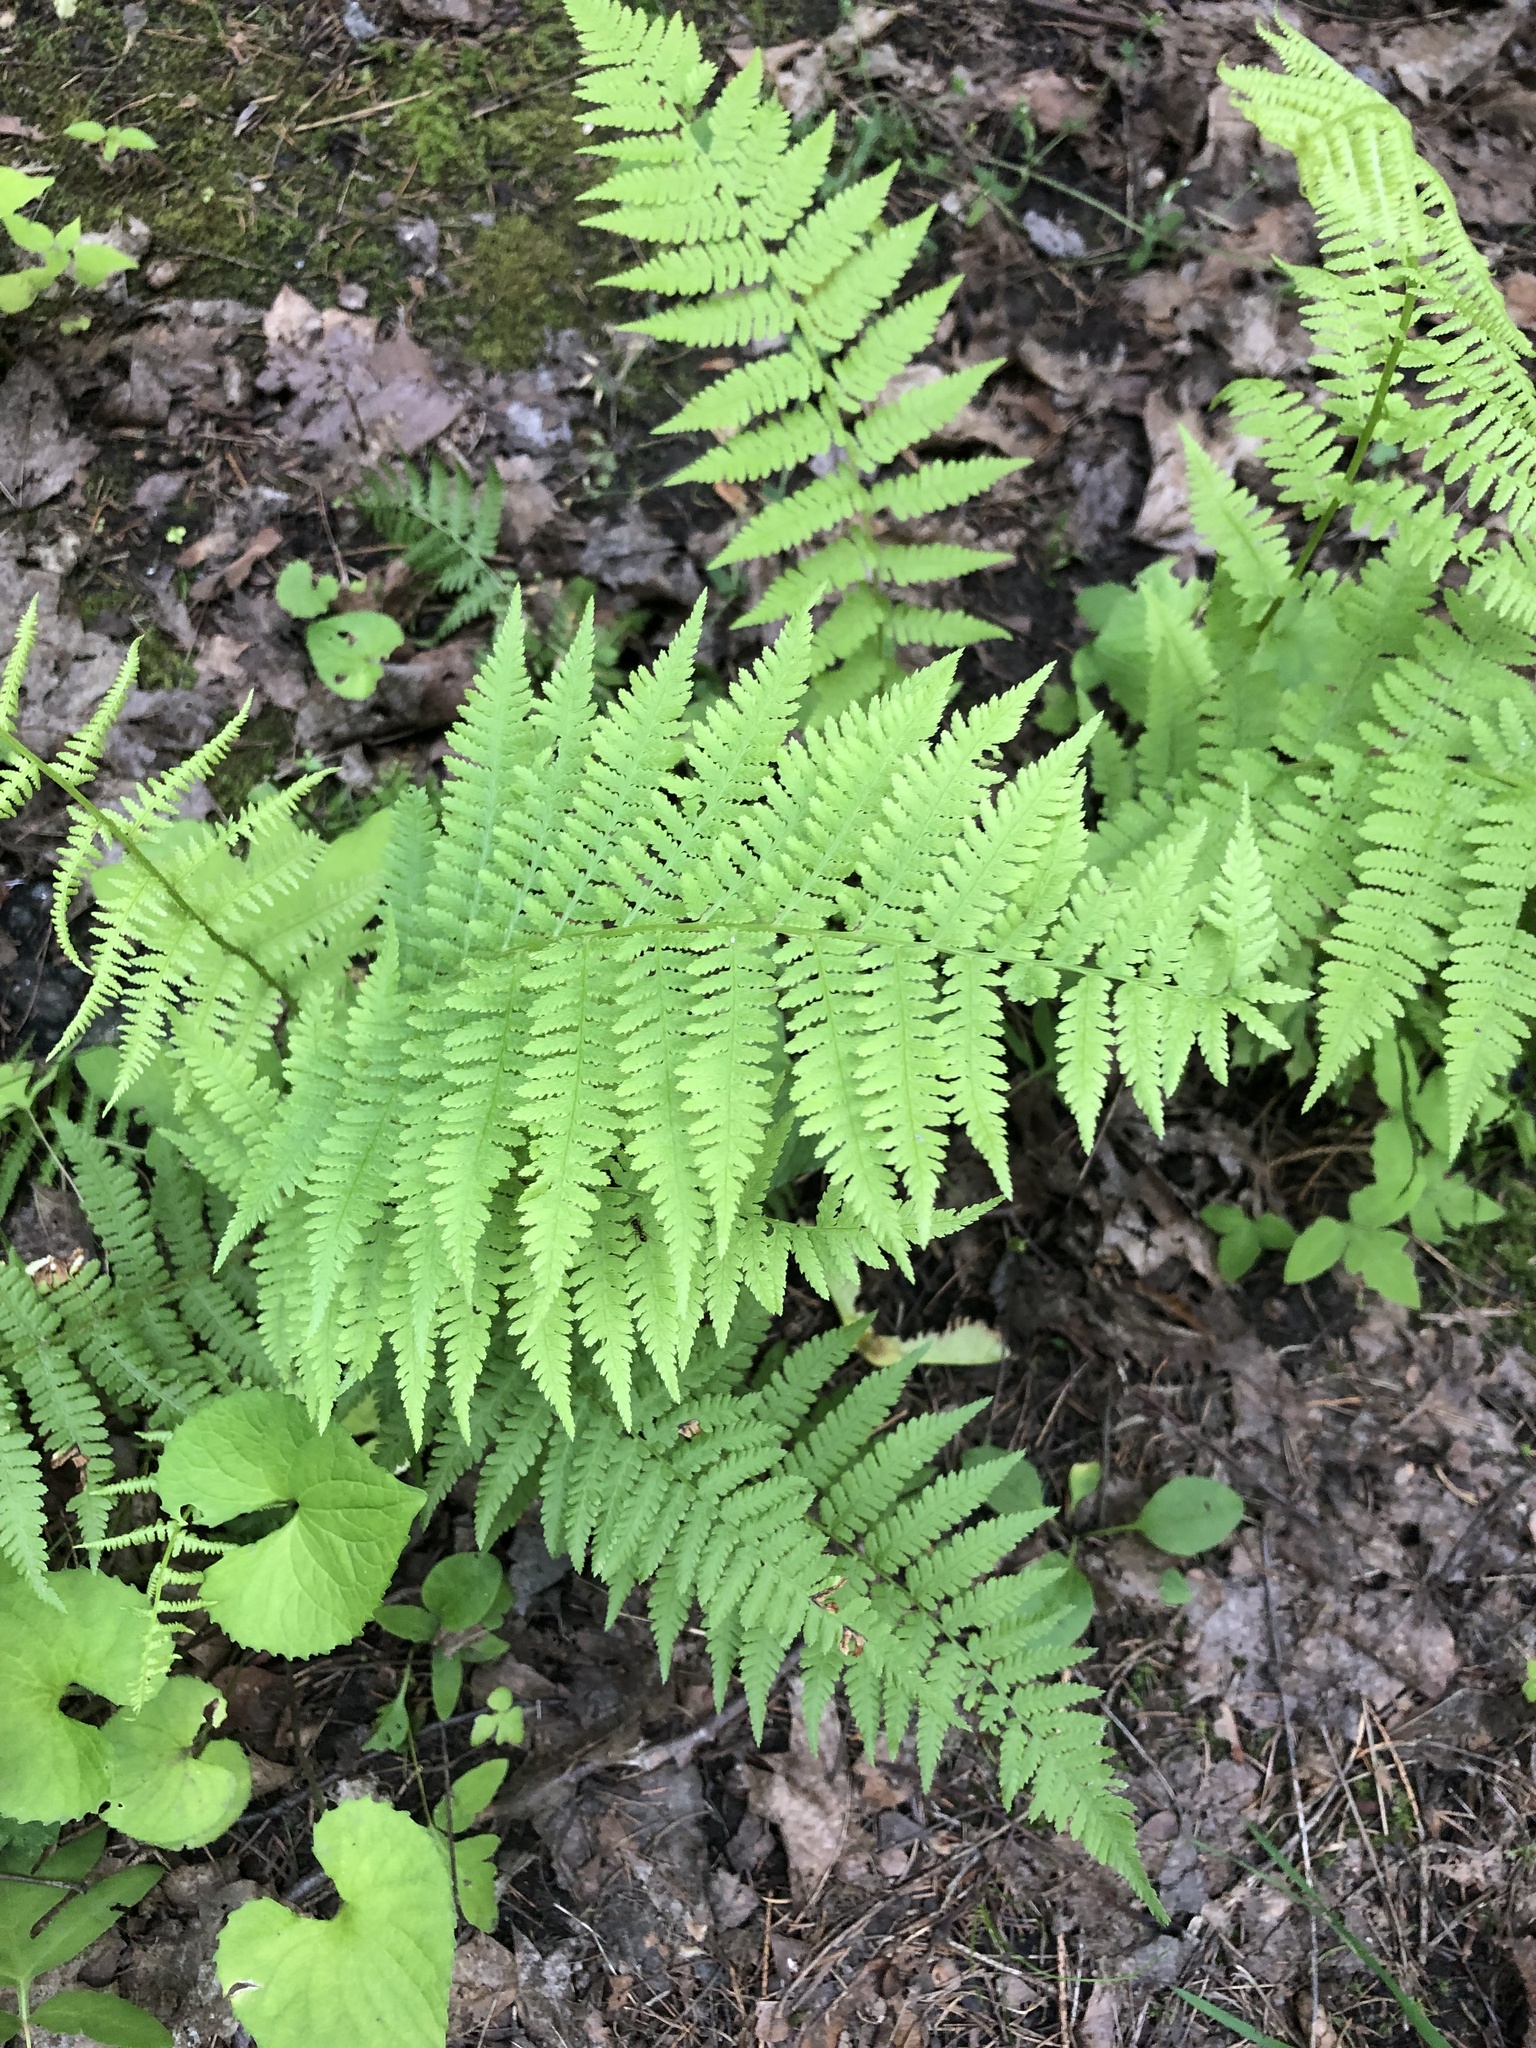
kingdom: Plantae
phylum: Tracheophyta
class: Polypodiopsida
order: Polypodiales
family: Athyriaceae
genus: Athyrium
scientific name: Athyrium angustum
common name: Northern lady fern
